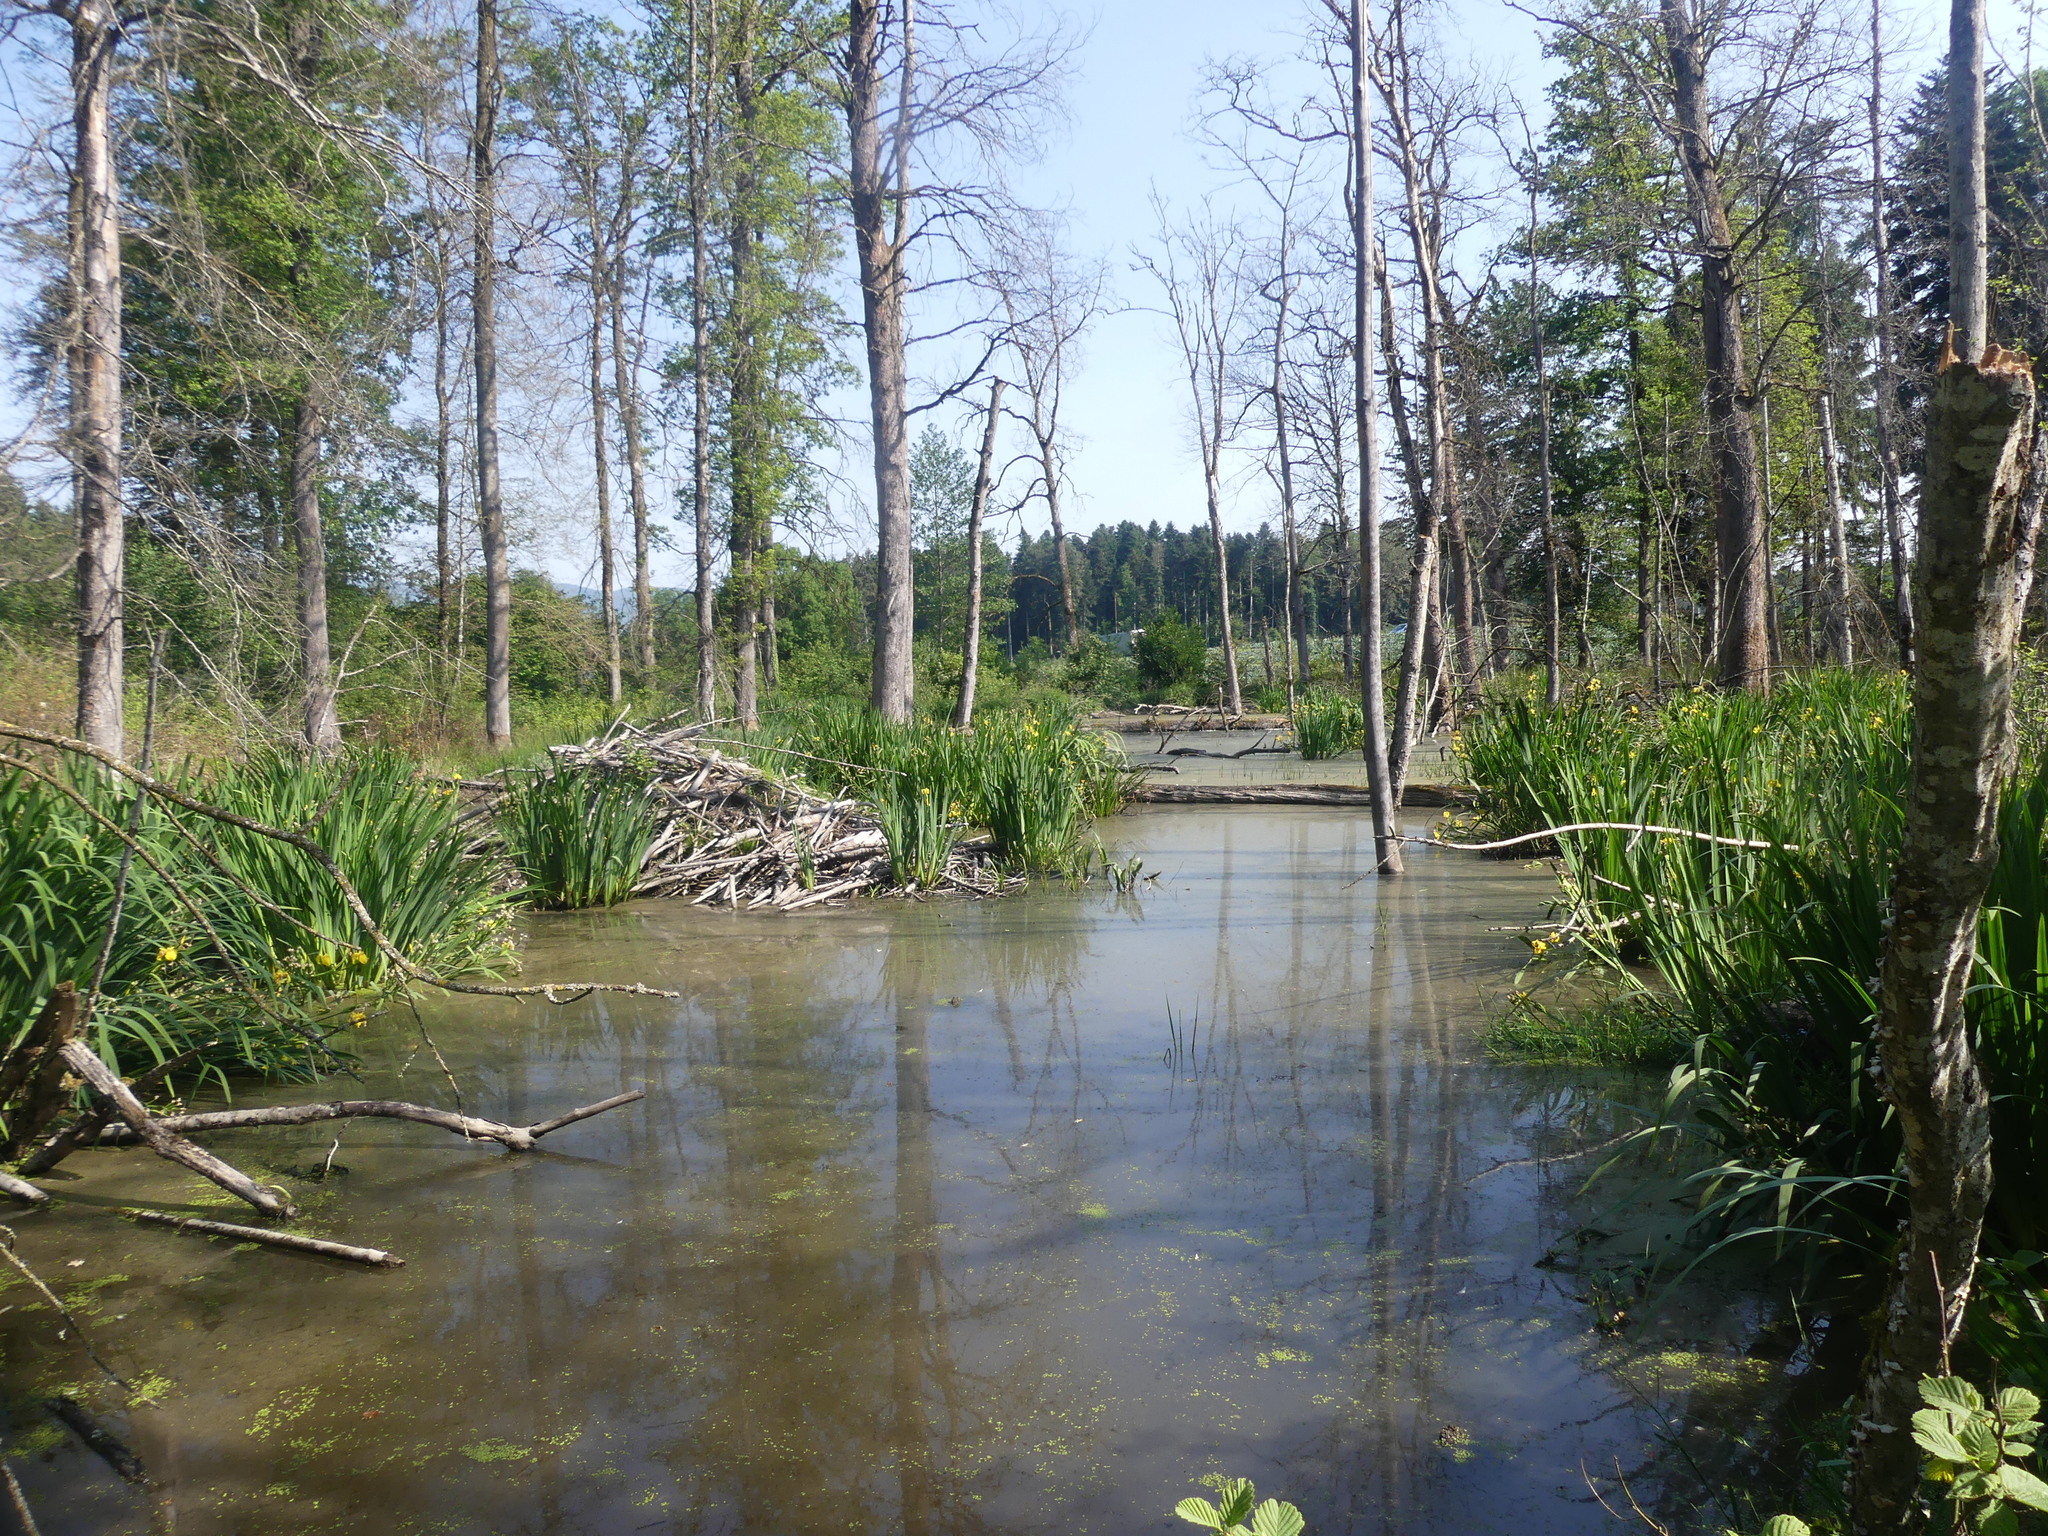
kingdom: Animalia
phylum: Chordata
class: Mammalia
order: Rodentia
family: Castoridae
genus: Castor
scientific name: Castor fiber
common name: Eurasian beaver
